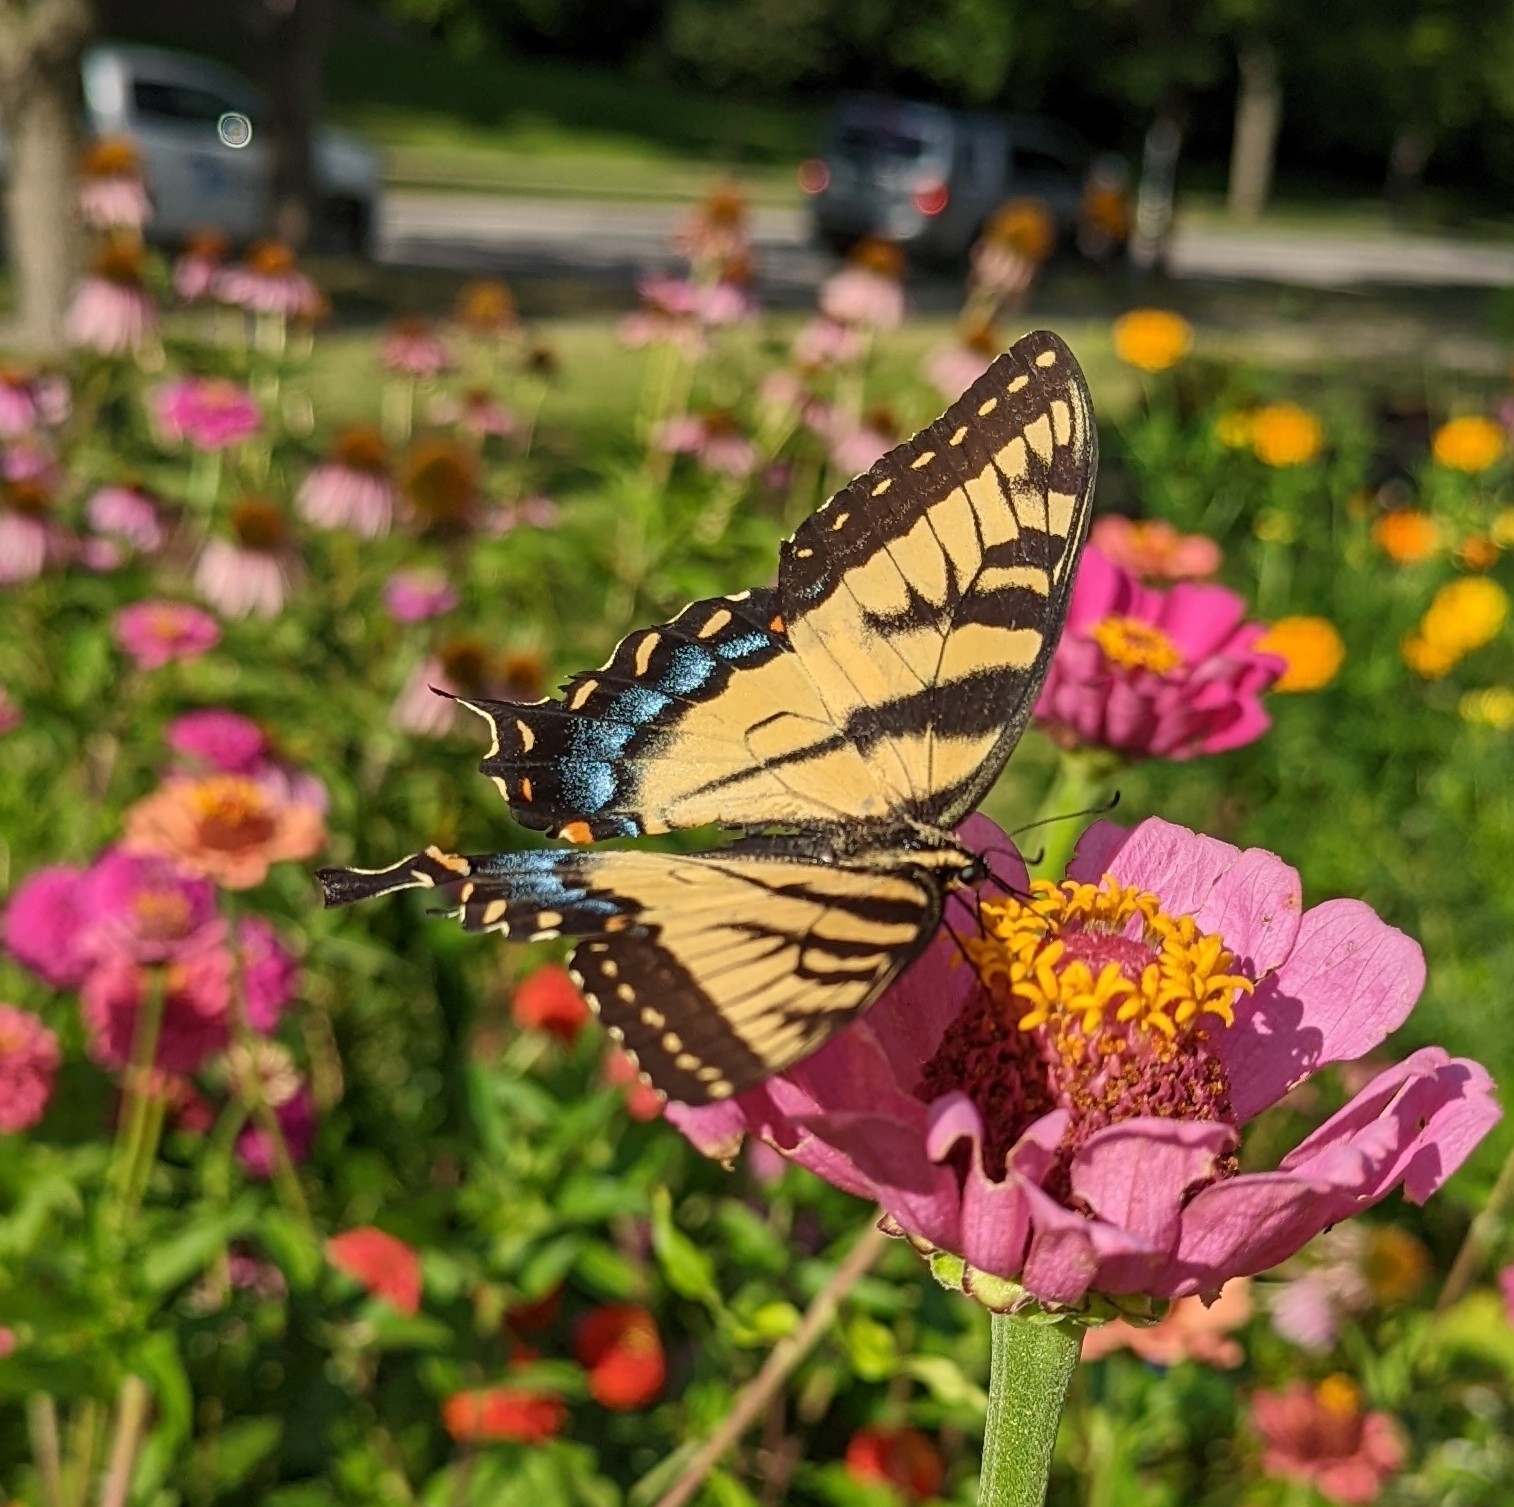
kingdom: Animalia
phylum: Arthropoda
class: Insecta
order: Lepidoptera
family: Papilionidae
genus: Papilio
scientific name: Papilio glaucus
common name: Tiger swallowtail
